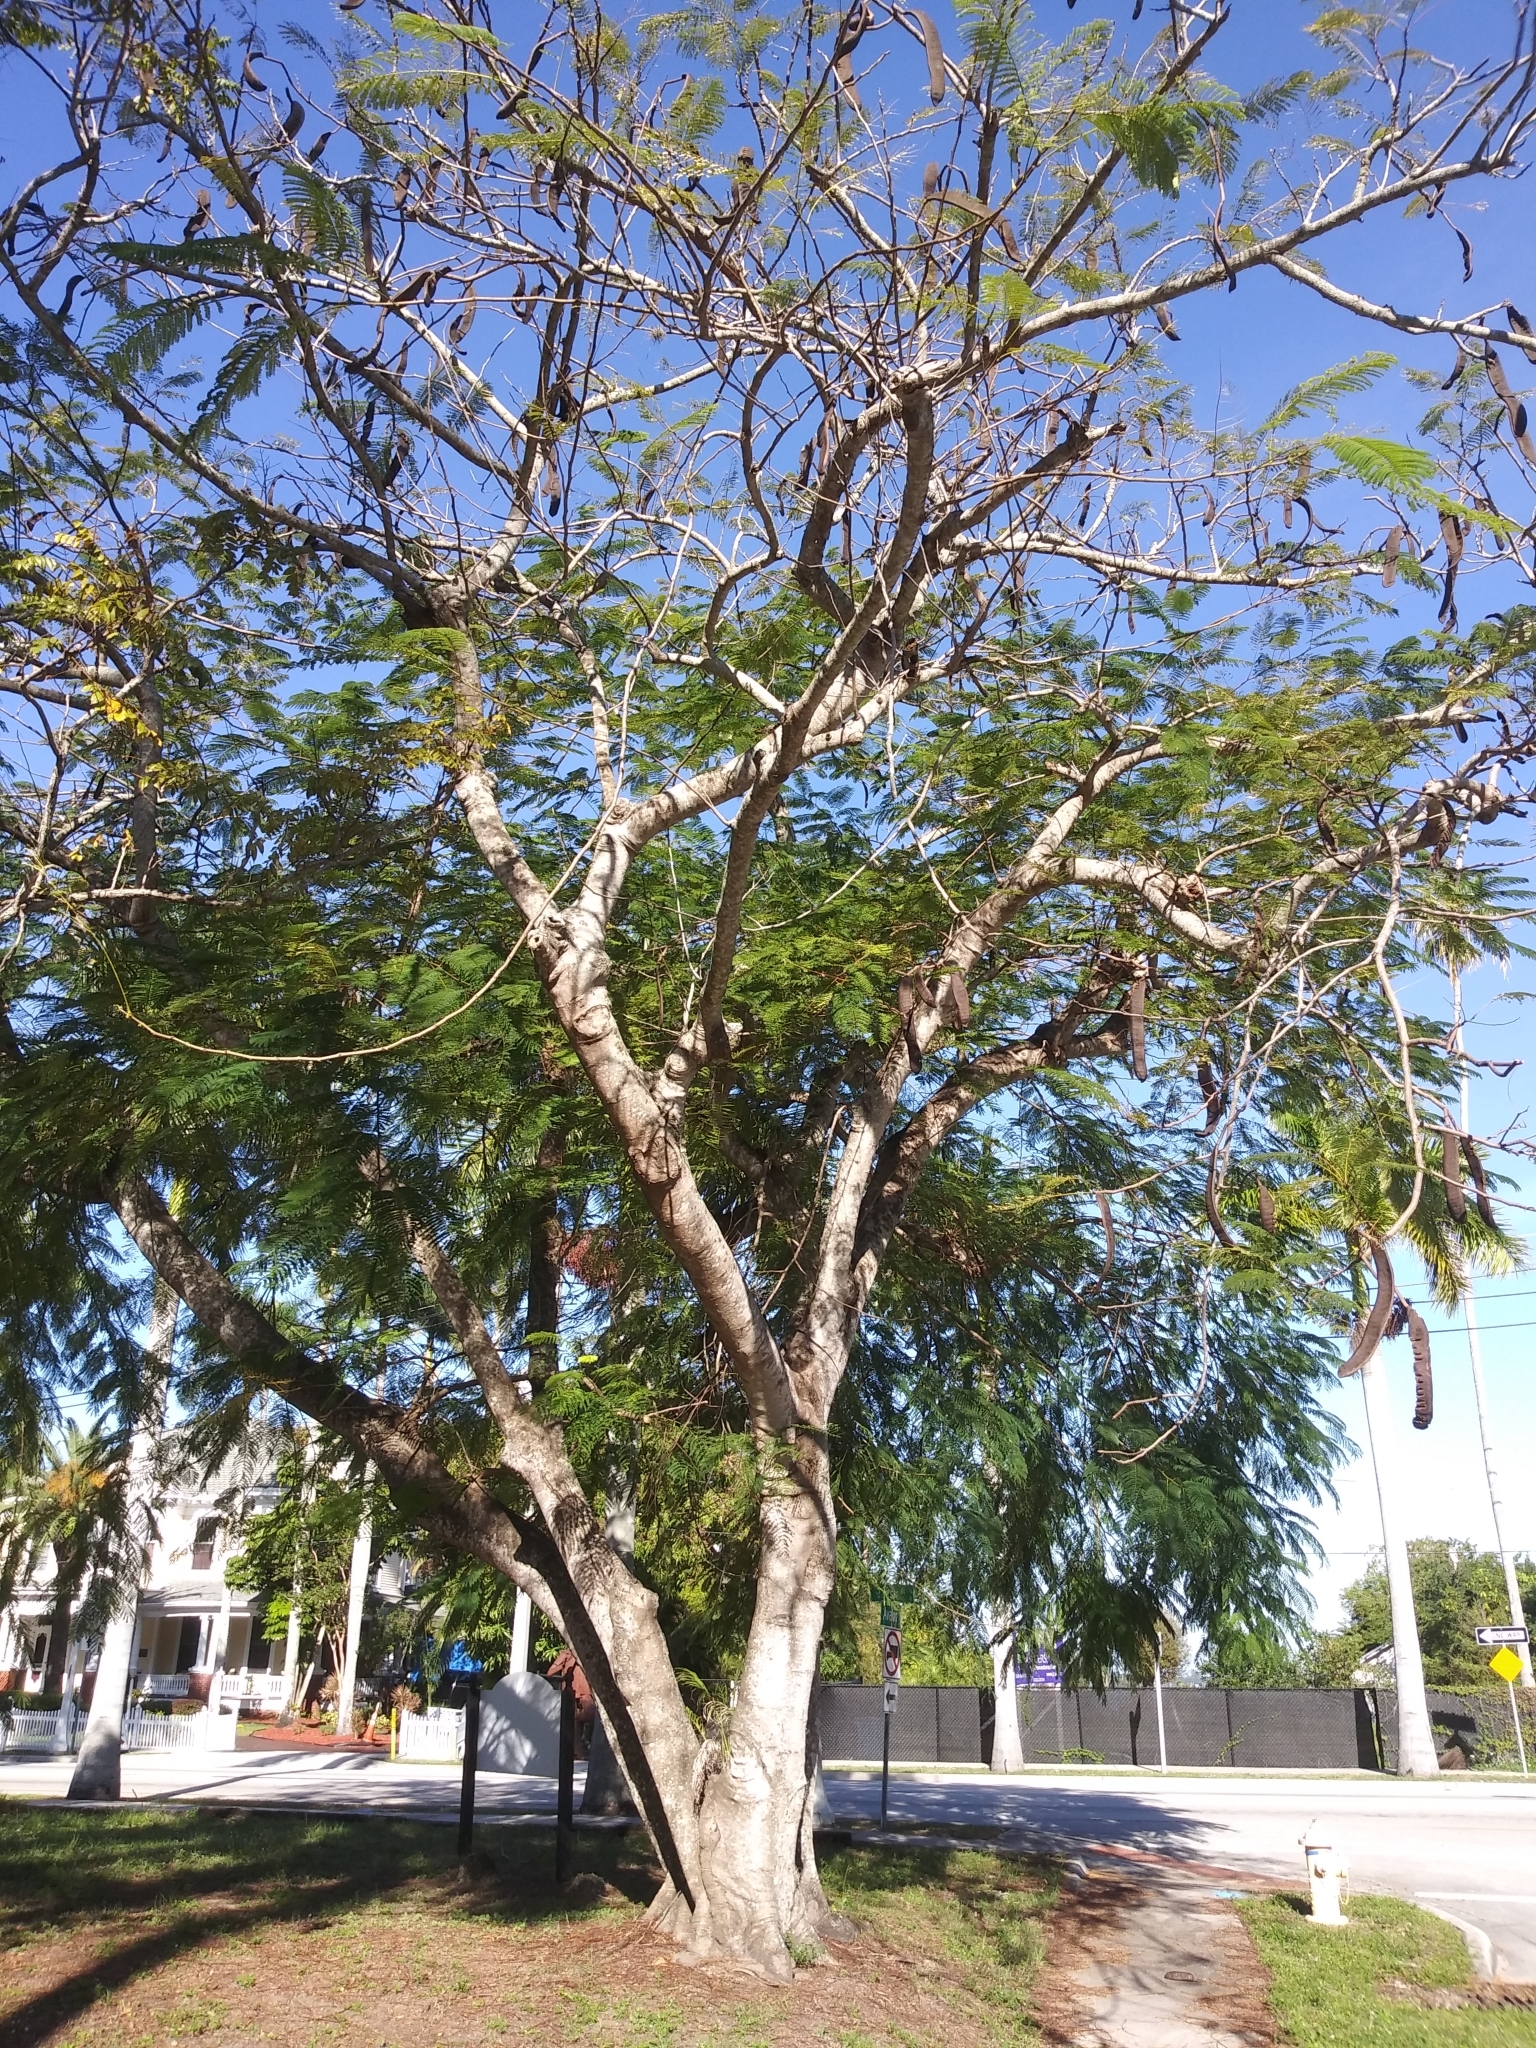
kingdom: Plantae
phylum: Tracheophyta
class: Magnoliopsida
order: Fabales
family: Fabaceae
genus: Delonix
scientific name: Delonix regia
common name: Royal poinciana
